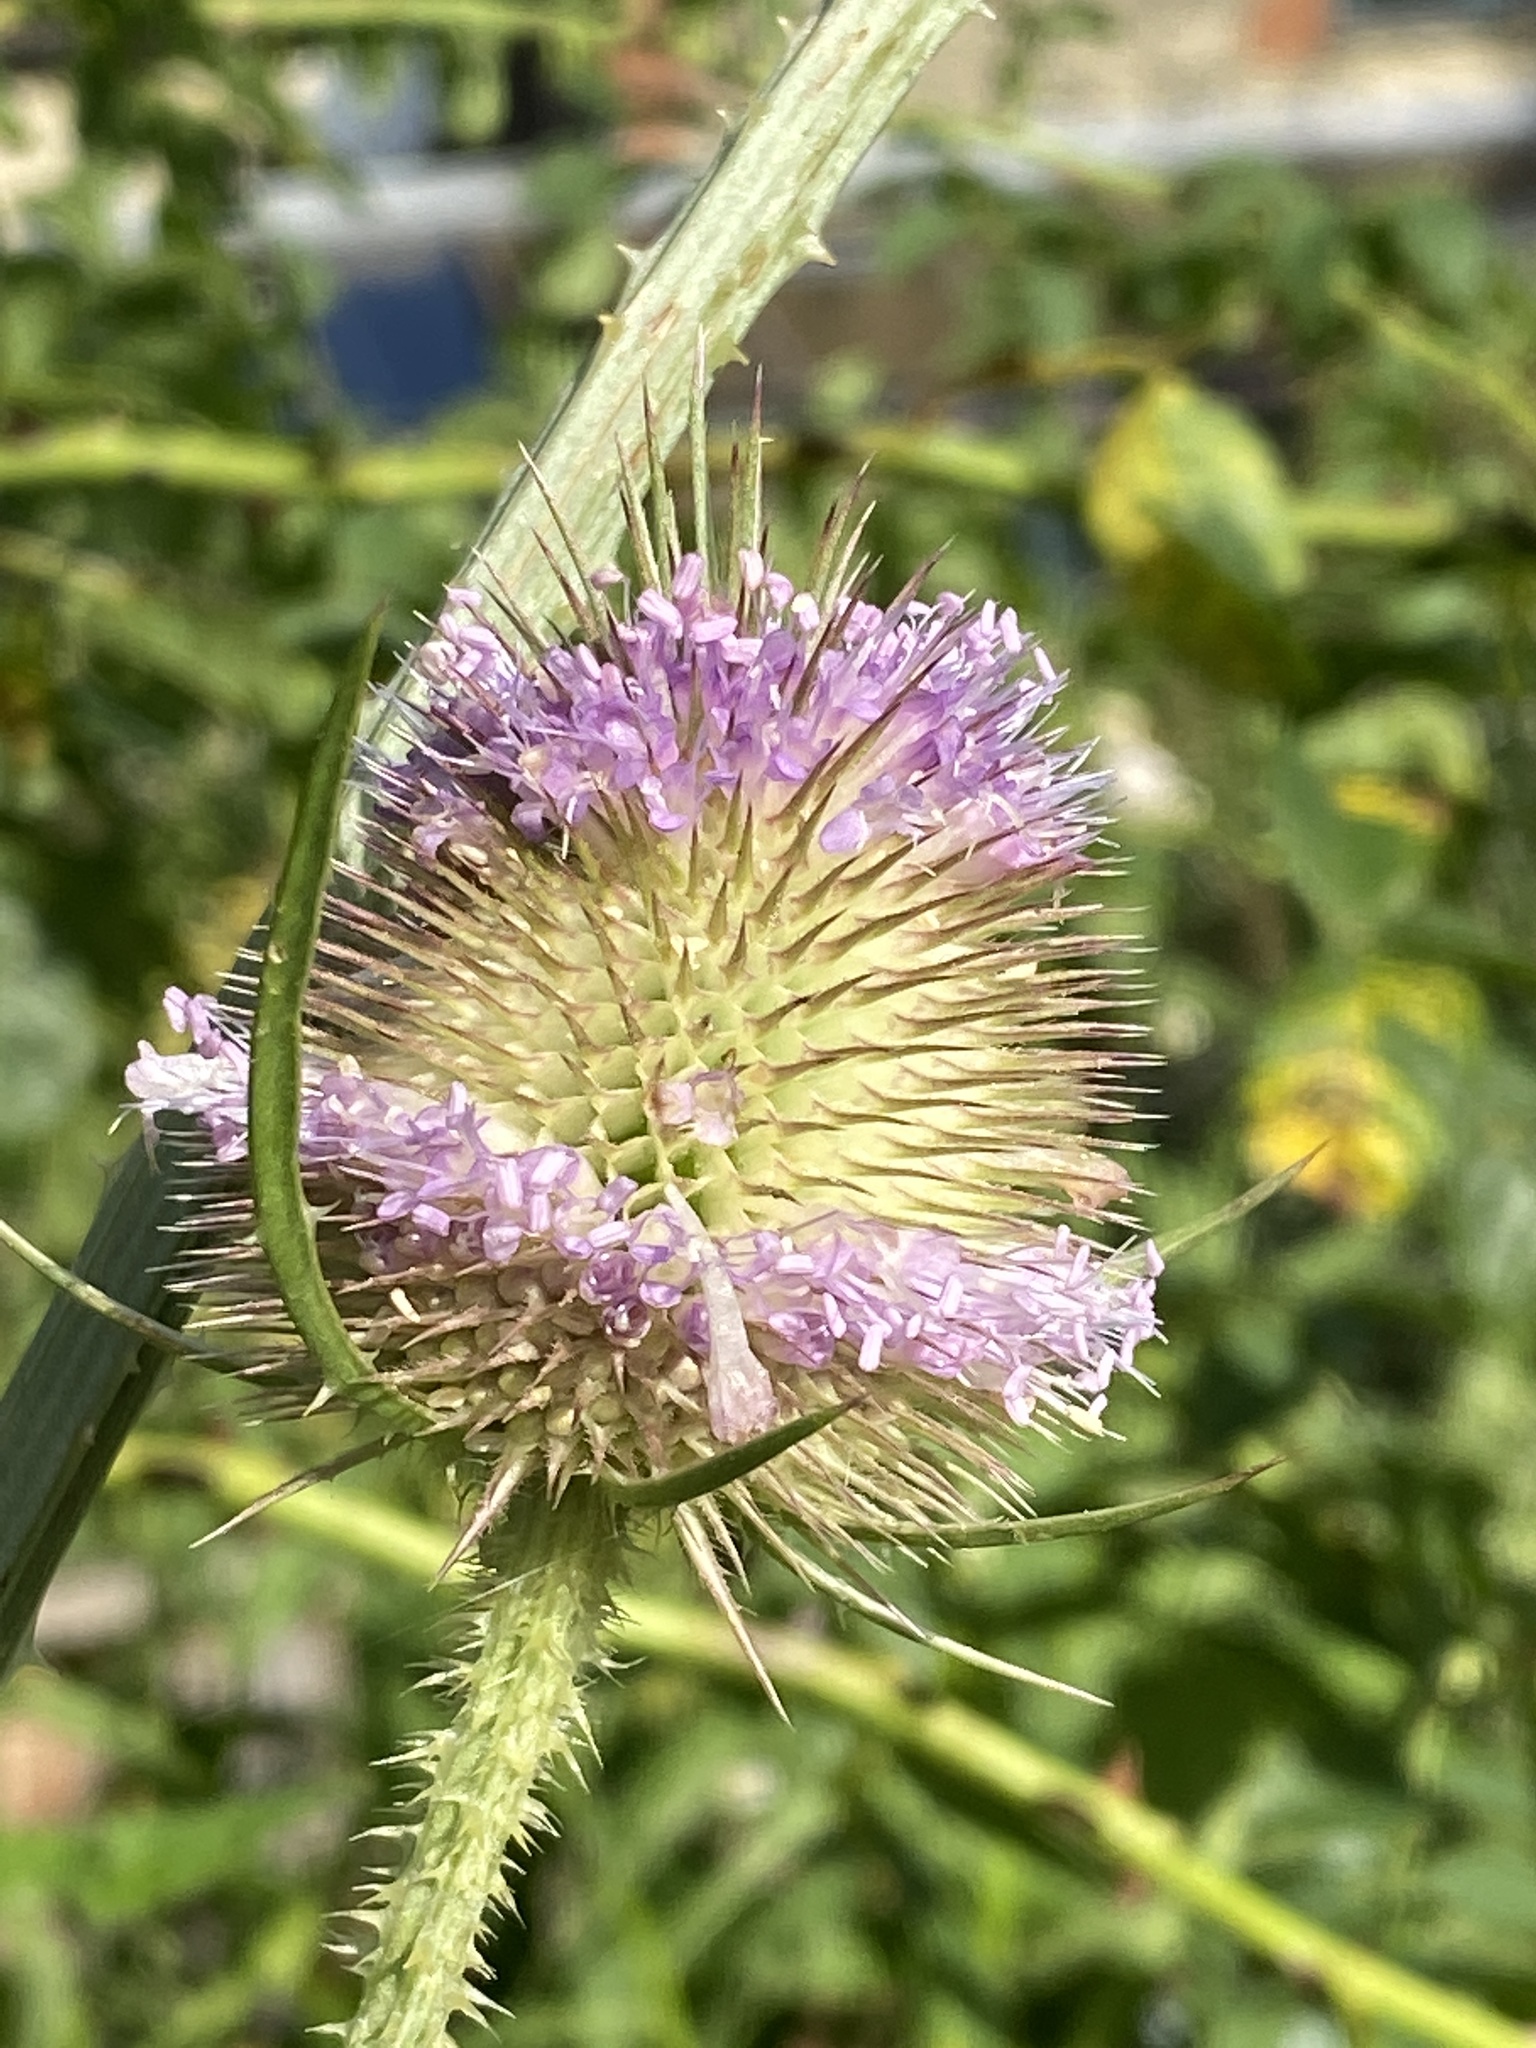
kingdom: Plantae
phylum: Tracheophyta
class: Magnoliopsida
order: Dipsacales
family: Caprifoliaceae
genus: Dipsacus
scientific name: Dipsacus fullonum
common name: Teasel
